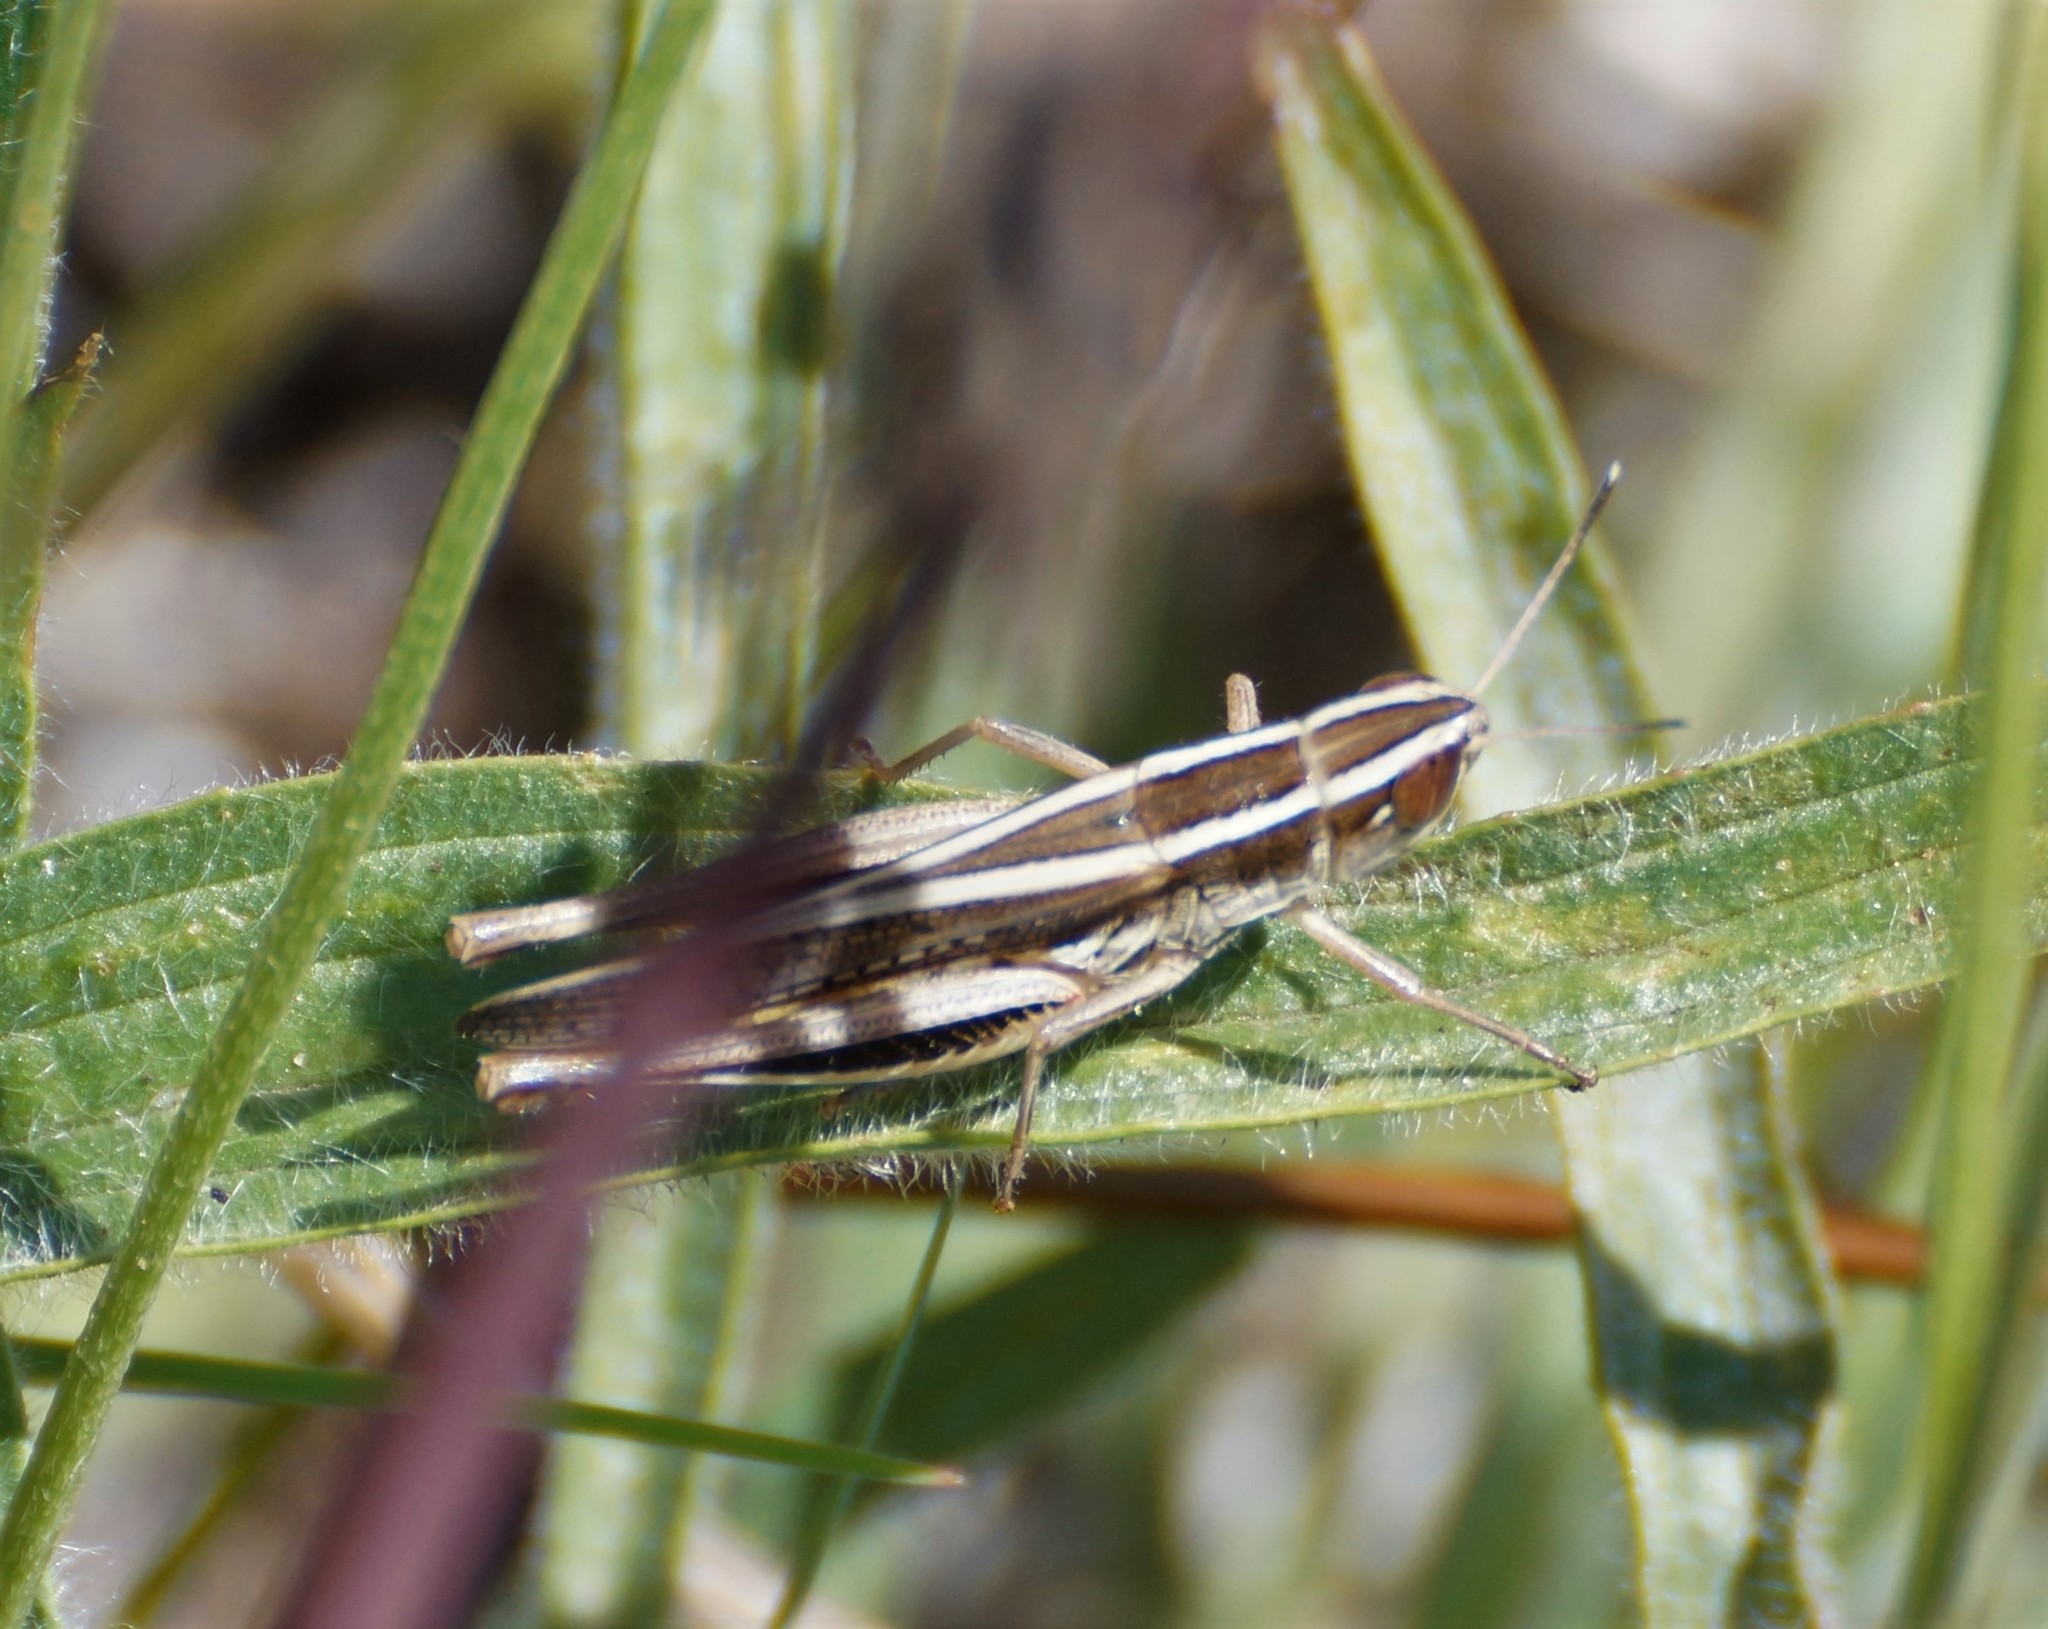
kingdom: Animalia
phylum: Arthropoda
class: Insecta
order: Orthoptera
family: Acrididae
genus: Macrotona
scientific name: Macrotona securiformis
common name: Inland macrotona
